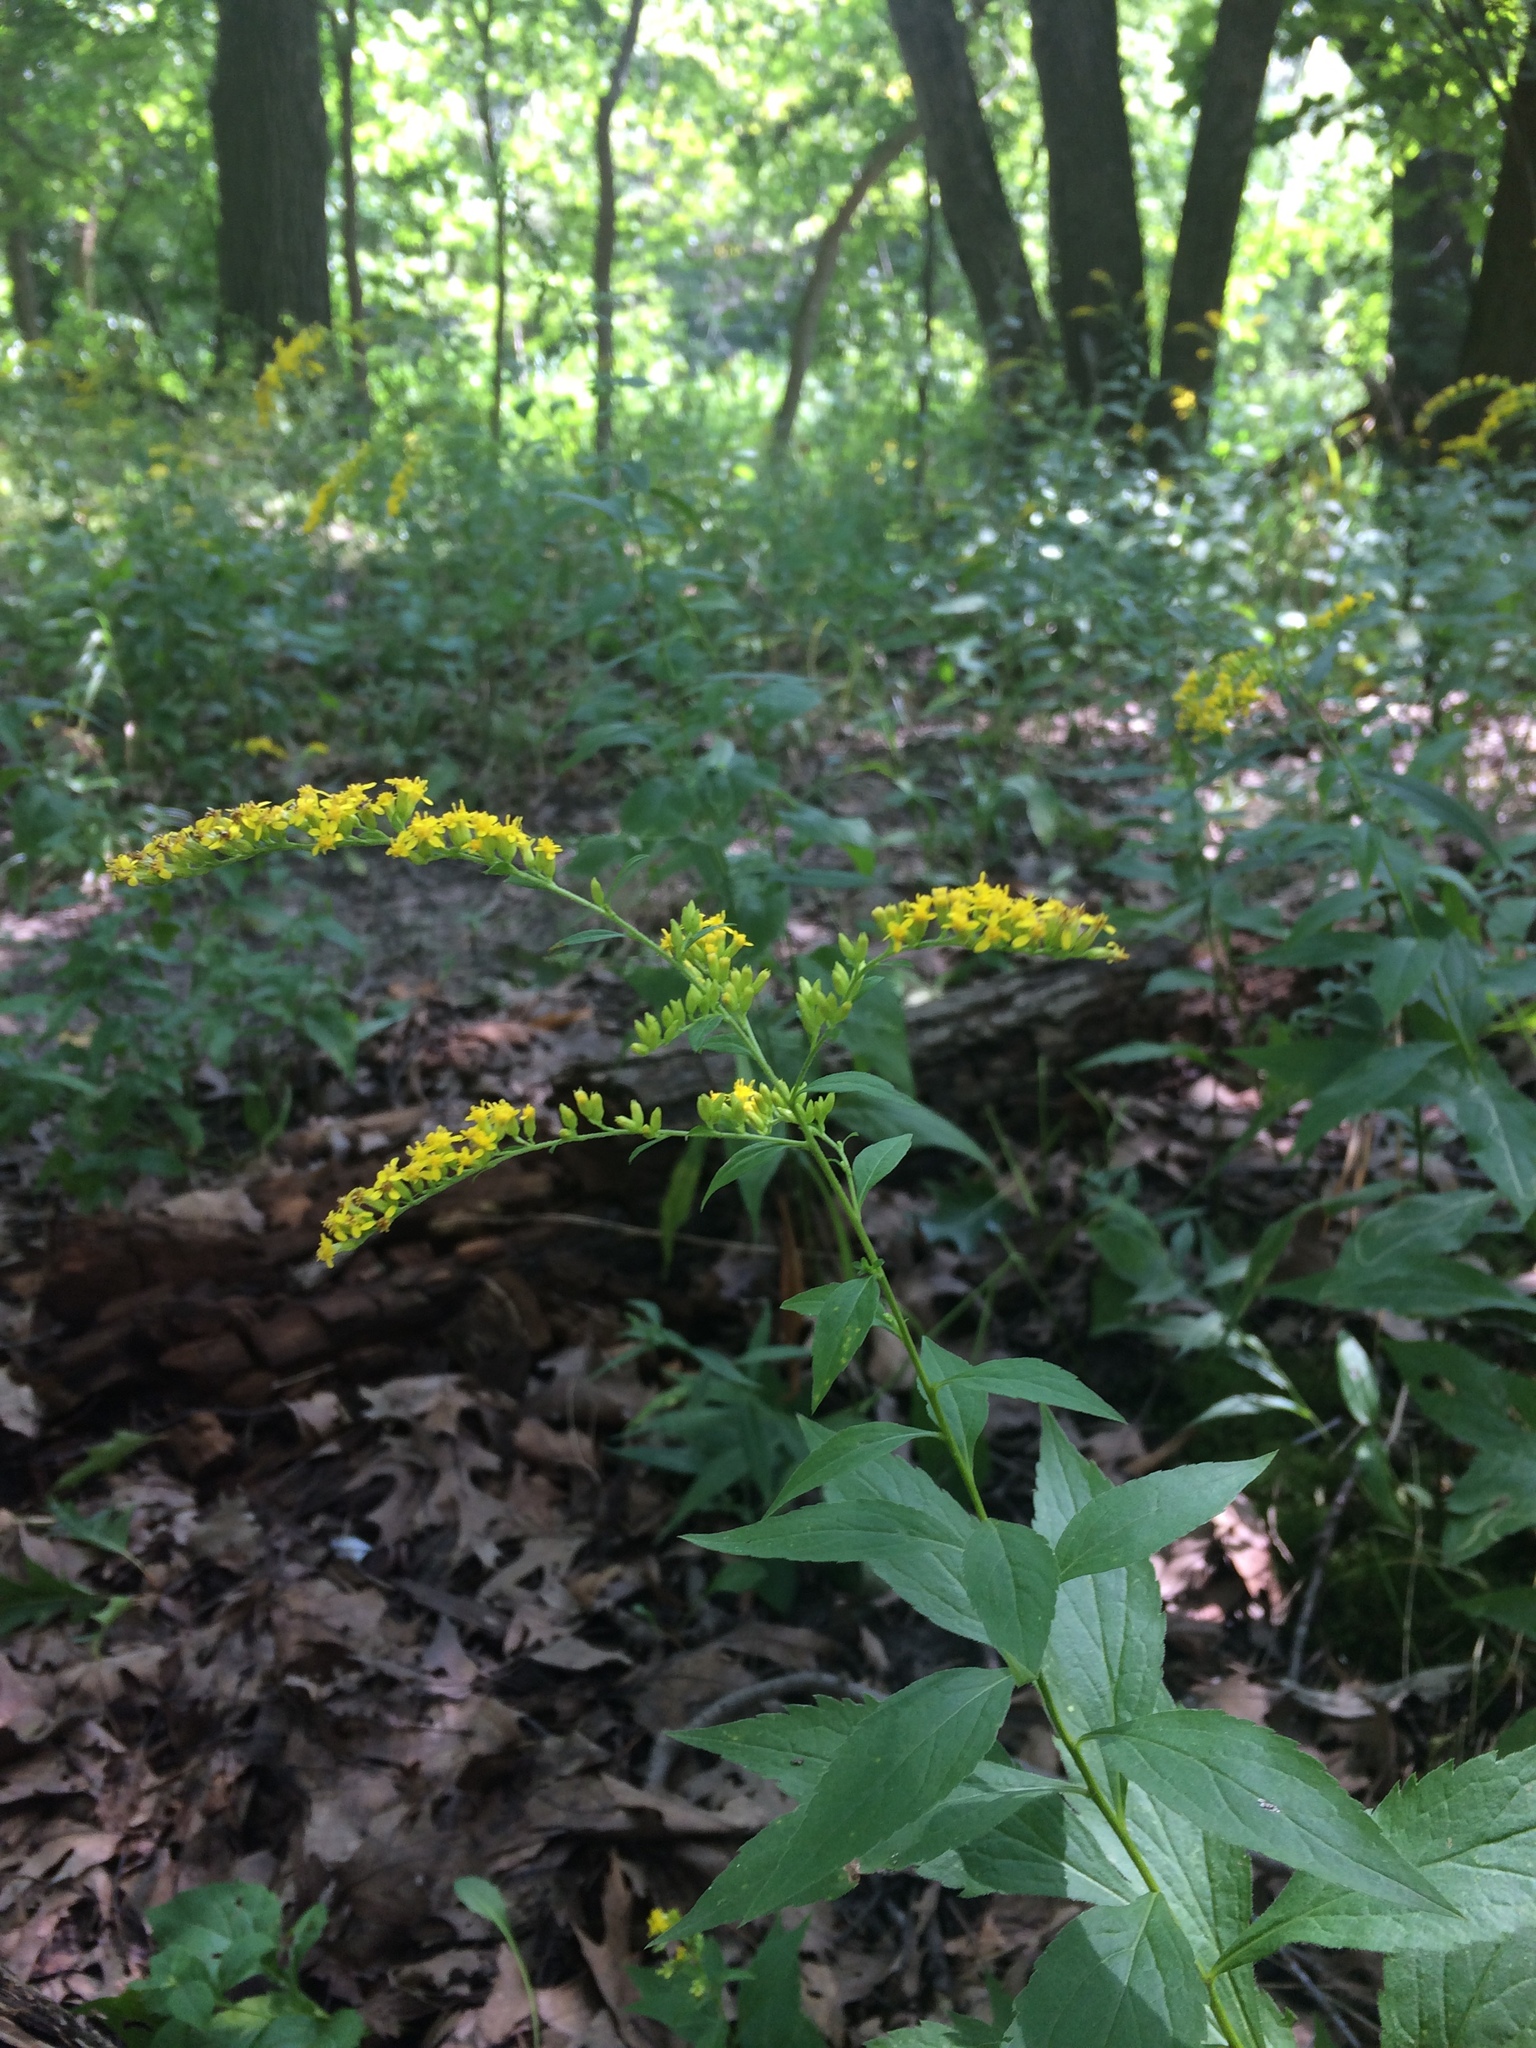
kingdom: Plantae
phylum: Tracheophyta
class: Magnoliopsida
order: Asterales
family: Asteraceae
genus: Solidago
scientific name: Solidago ulmifolia
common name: Elm-leaf goldenrod
